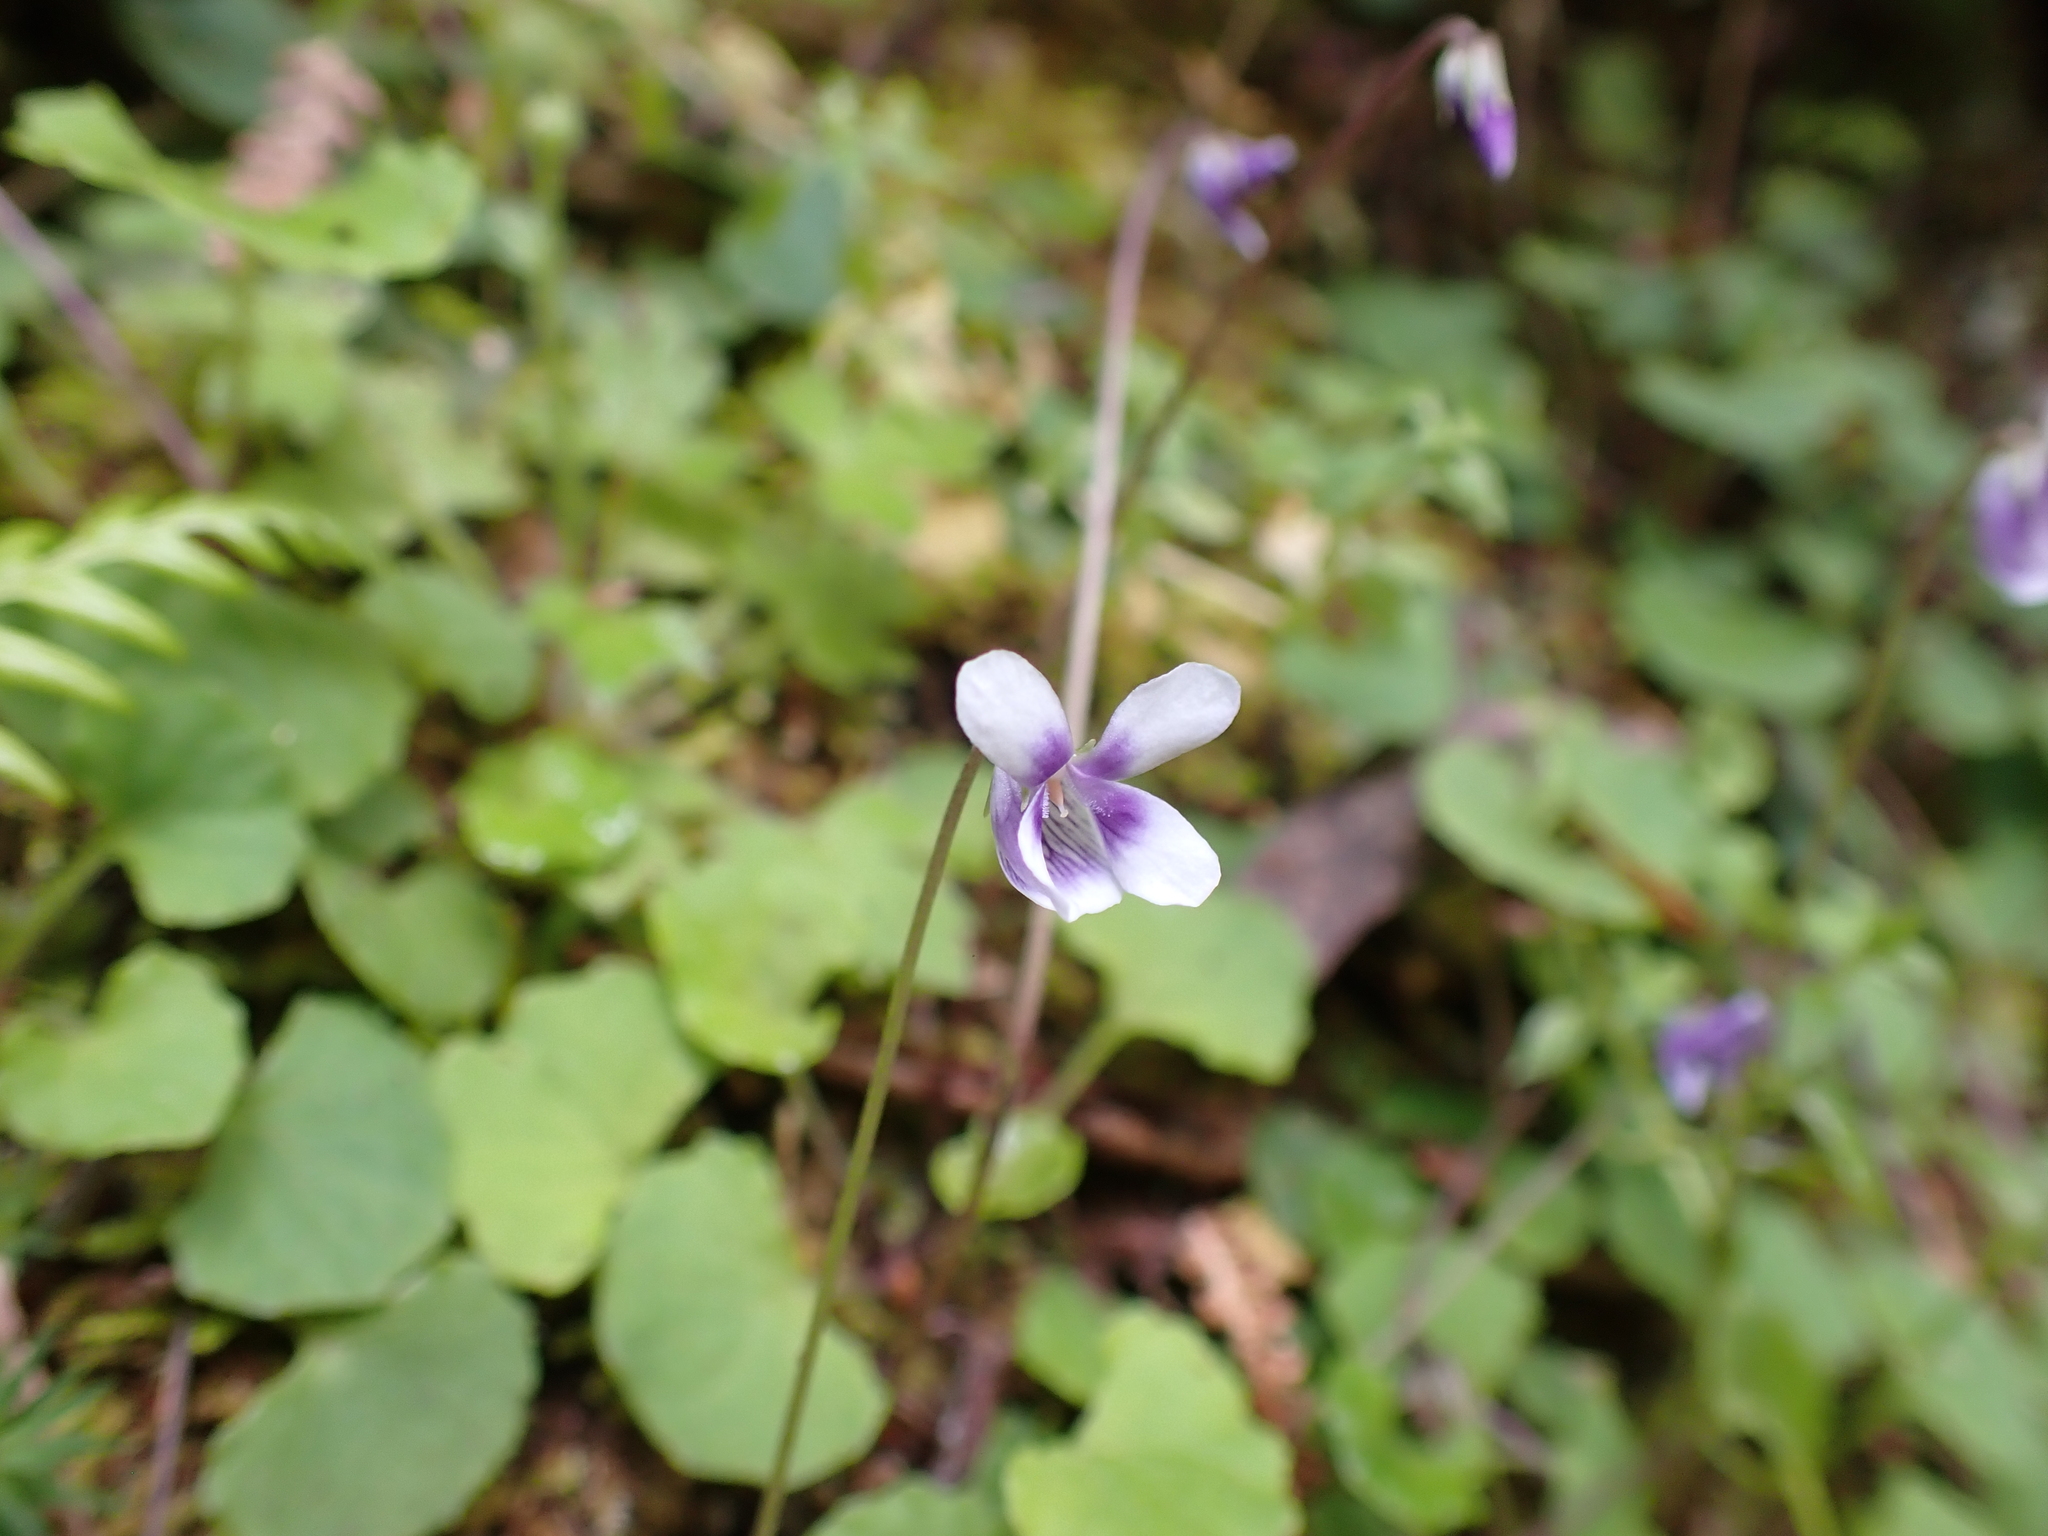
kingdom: Plantae
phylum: Tracheophyta
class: Magnoliopsida
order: Malpighiales
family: Violaceae
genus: Viola
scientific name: Viola hederacea
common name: Australian violet
